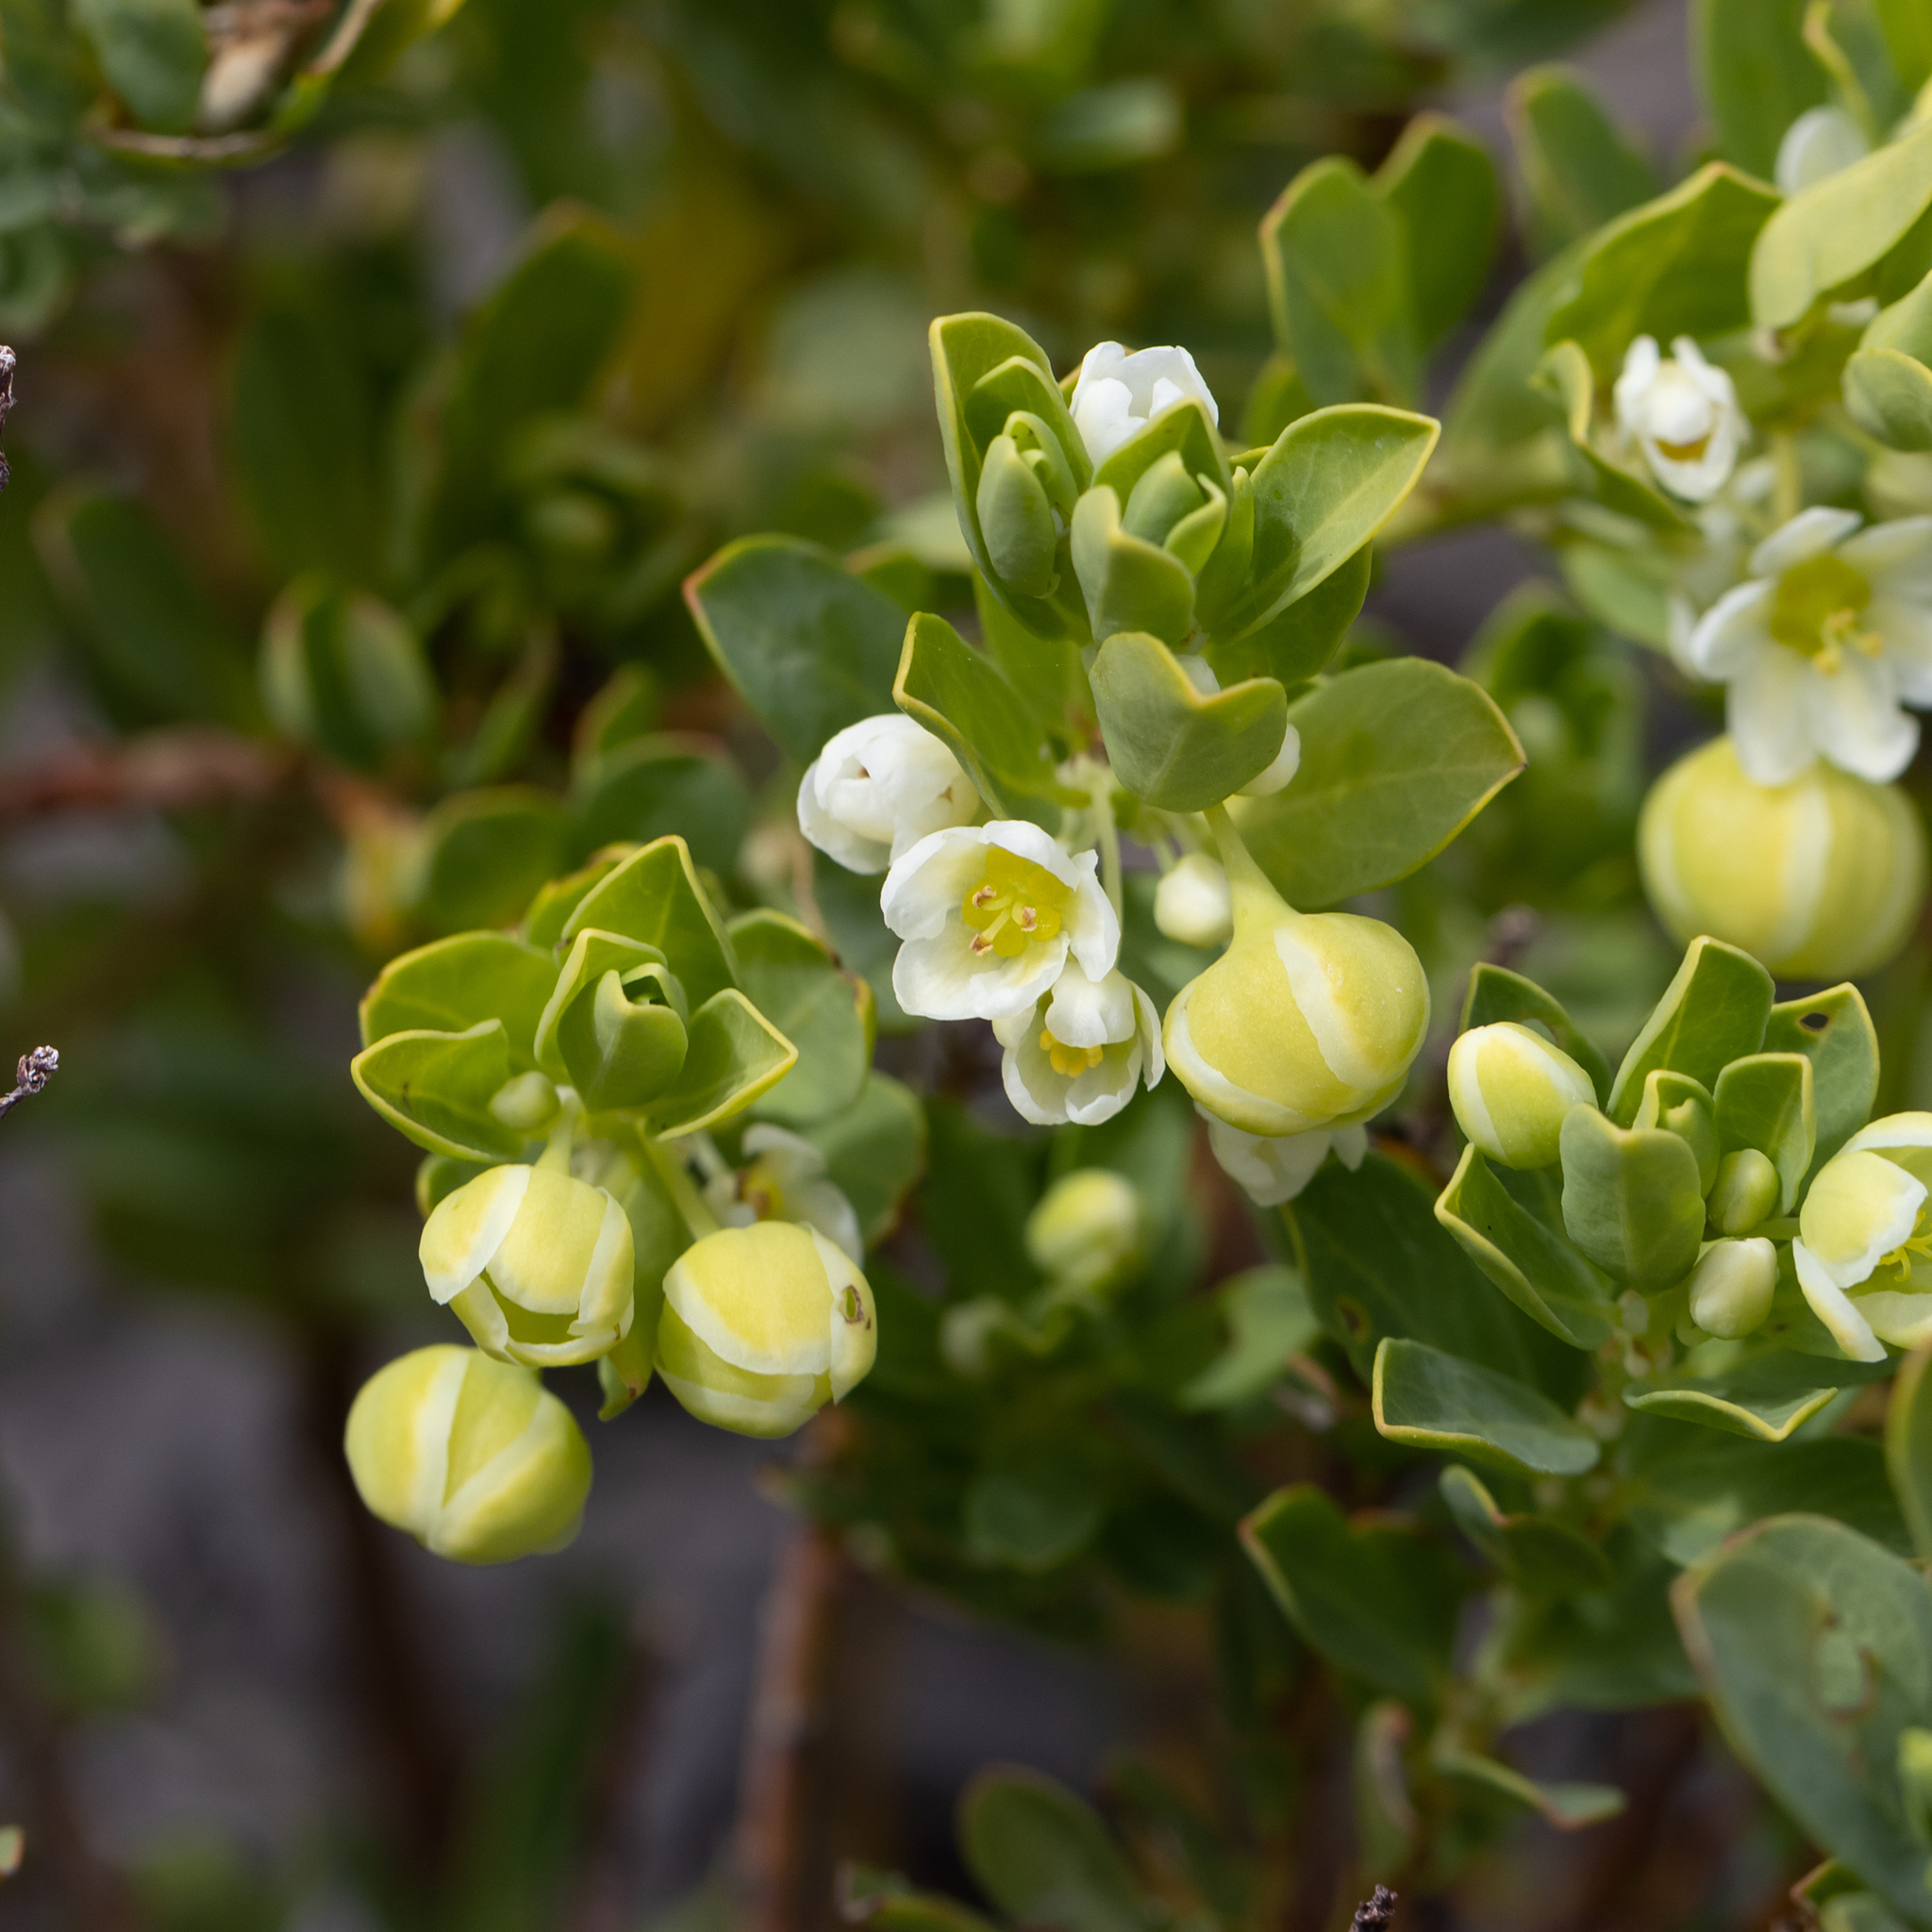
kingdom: Plantae
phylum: Tracheophyta
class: Magnoliopsida
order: Malpighiales
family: Phyllanthaceae
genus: Phyllanthus
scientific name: Phyllanthus calycinus
